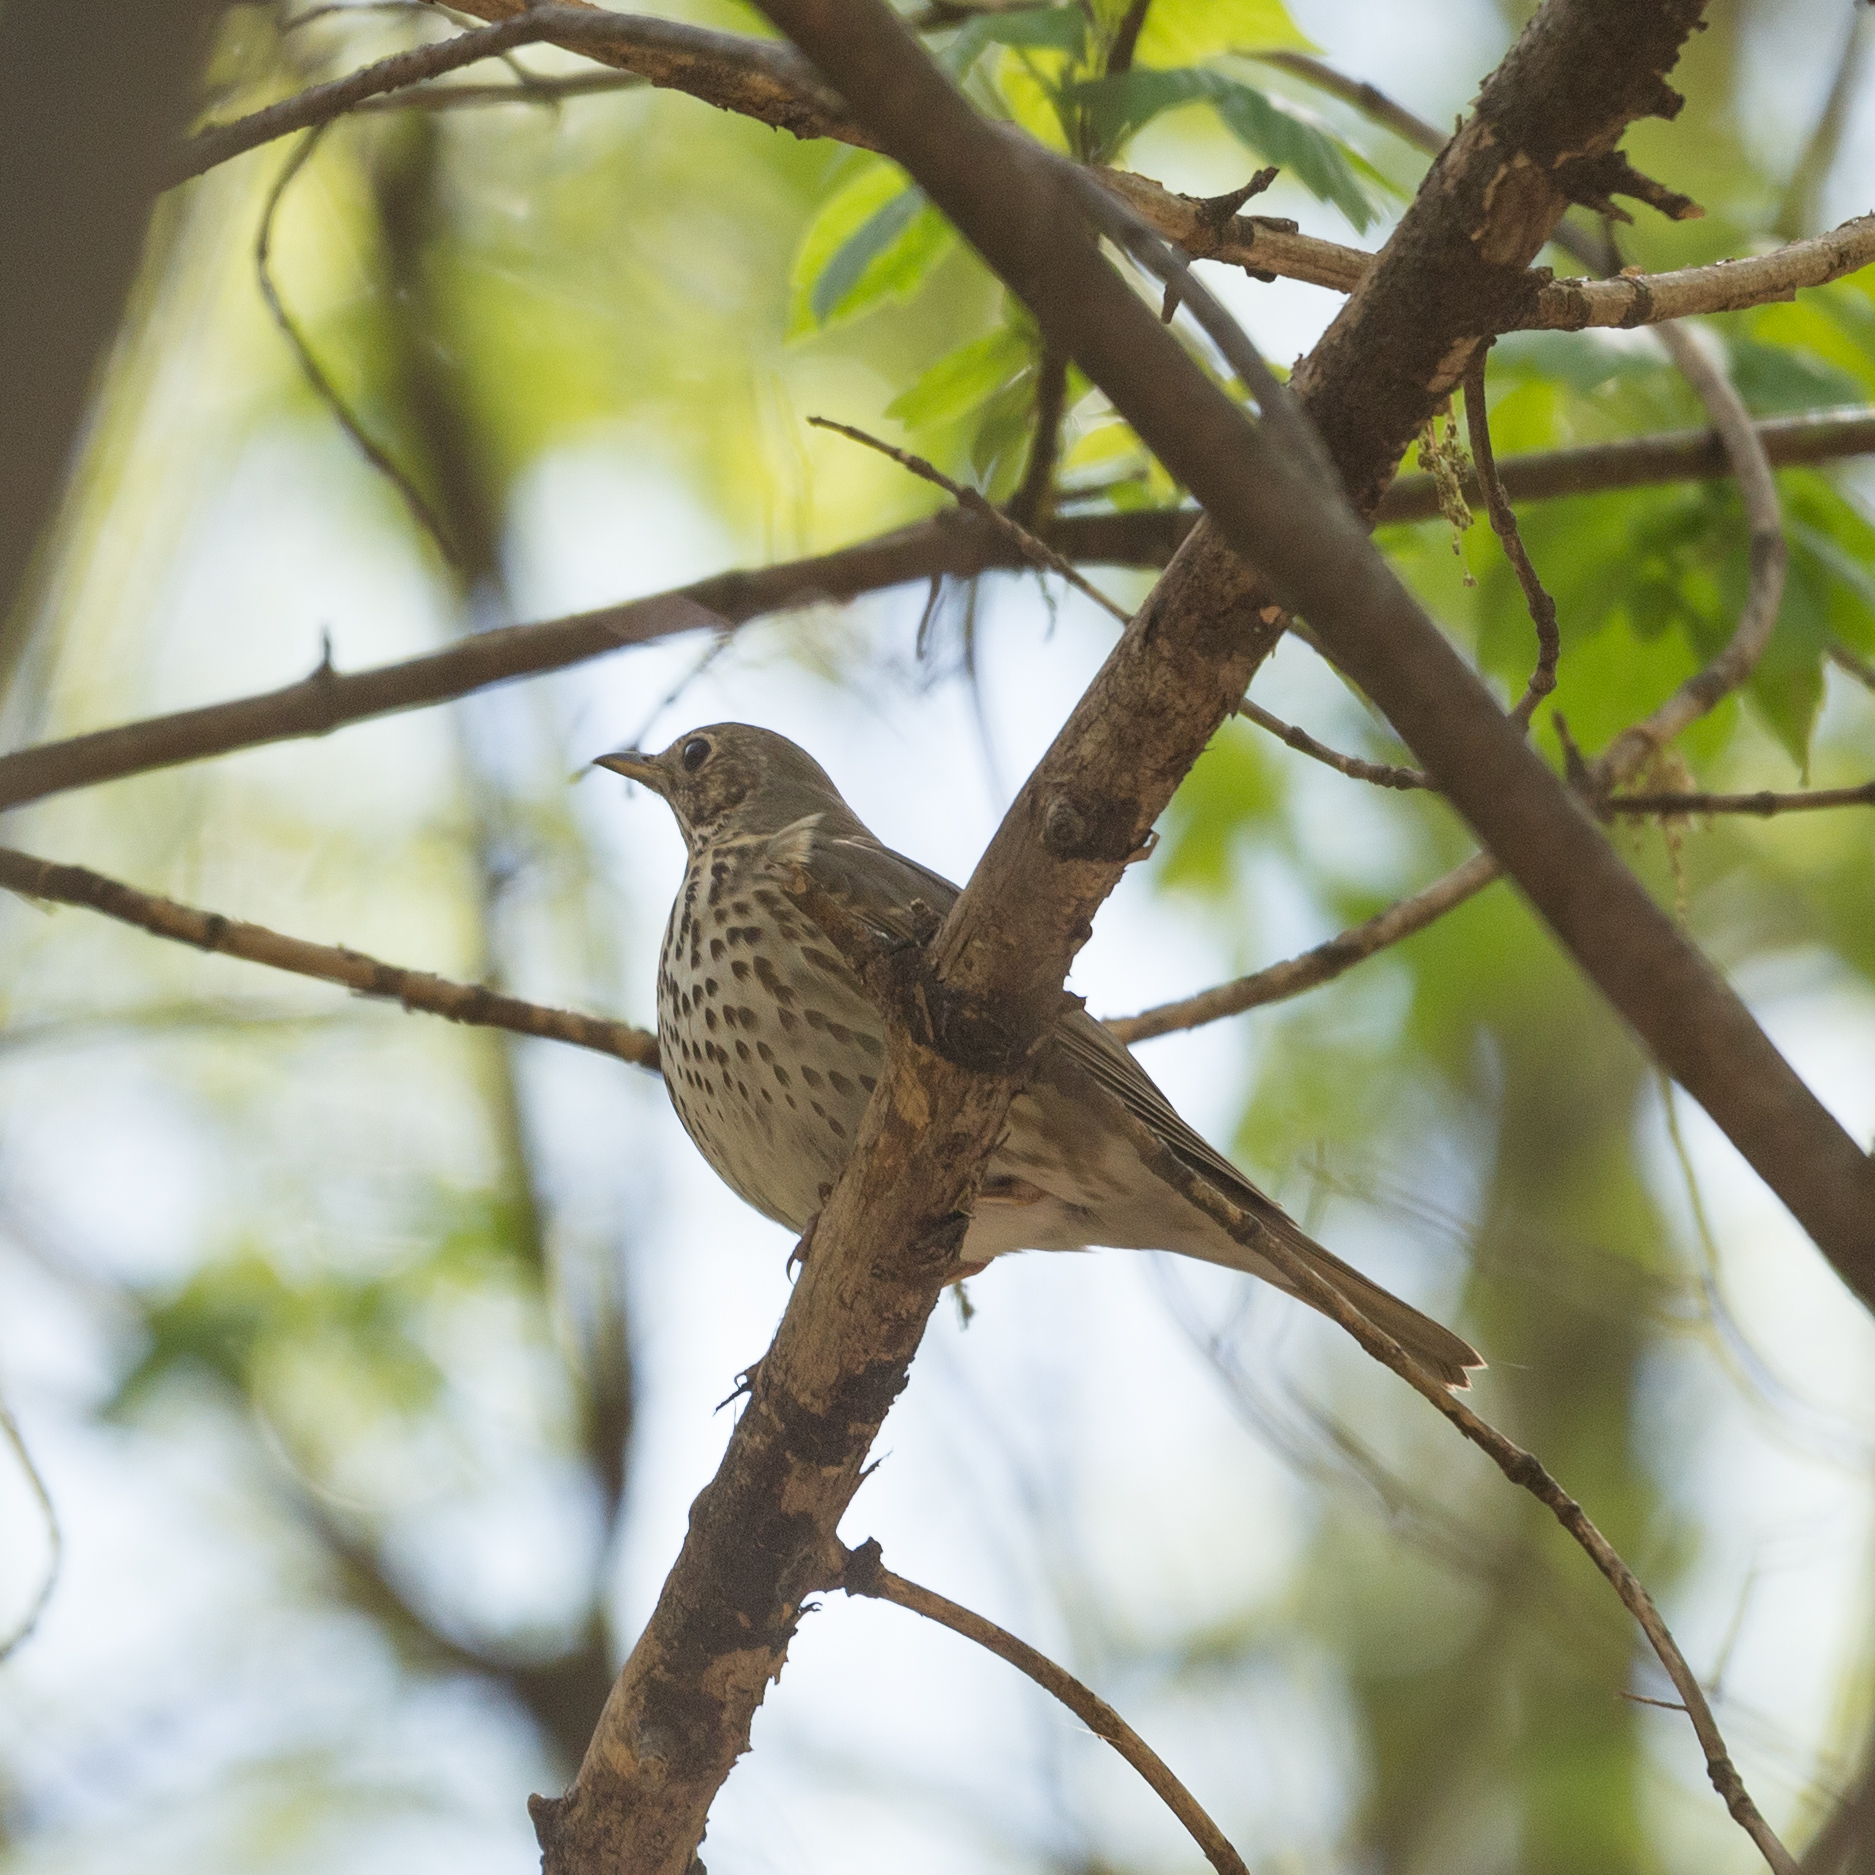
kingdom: Animalia
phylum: Chordata
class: Aves
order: Passeriformes
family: Turdidae
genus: Turdus
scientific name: Turdus philomelos
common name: Song thrush
